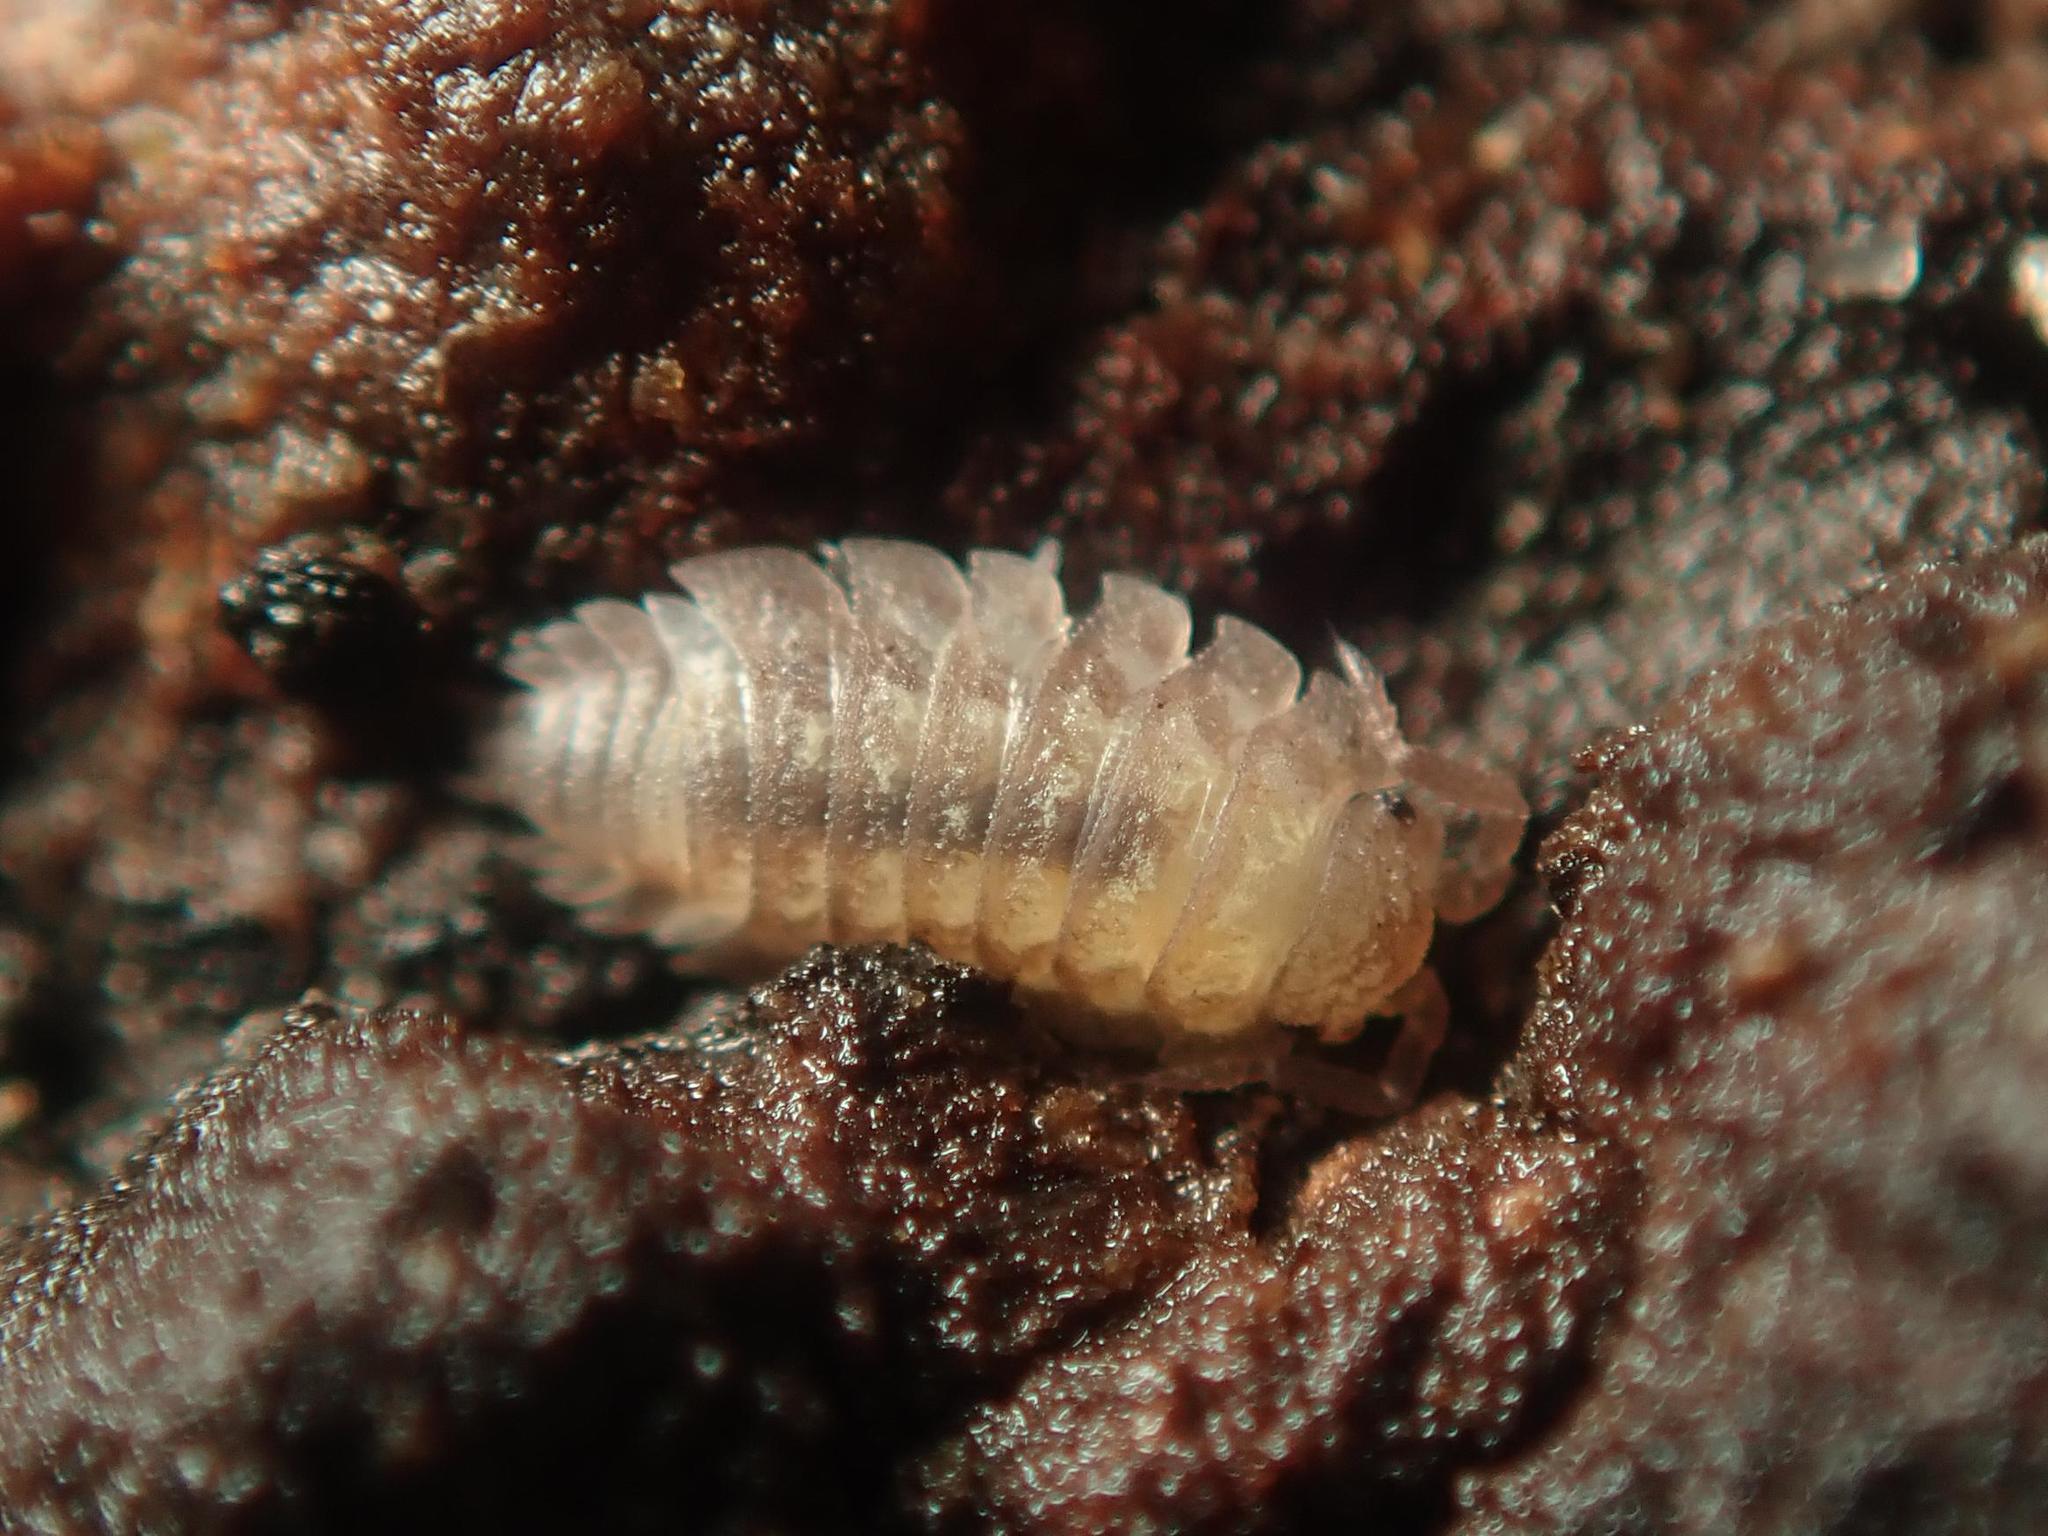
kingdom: Animalia
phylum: Arthropoda
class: Malacostraca
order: Isopoda
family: Oniscidae
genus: Oniscus
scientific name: Oniscus asellus
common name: Common shiny woodlouse
